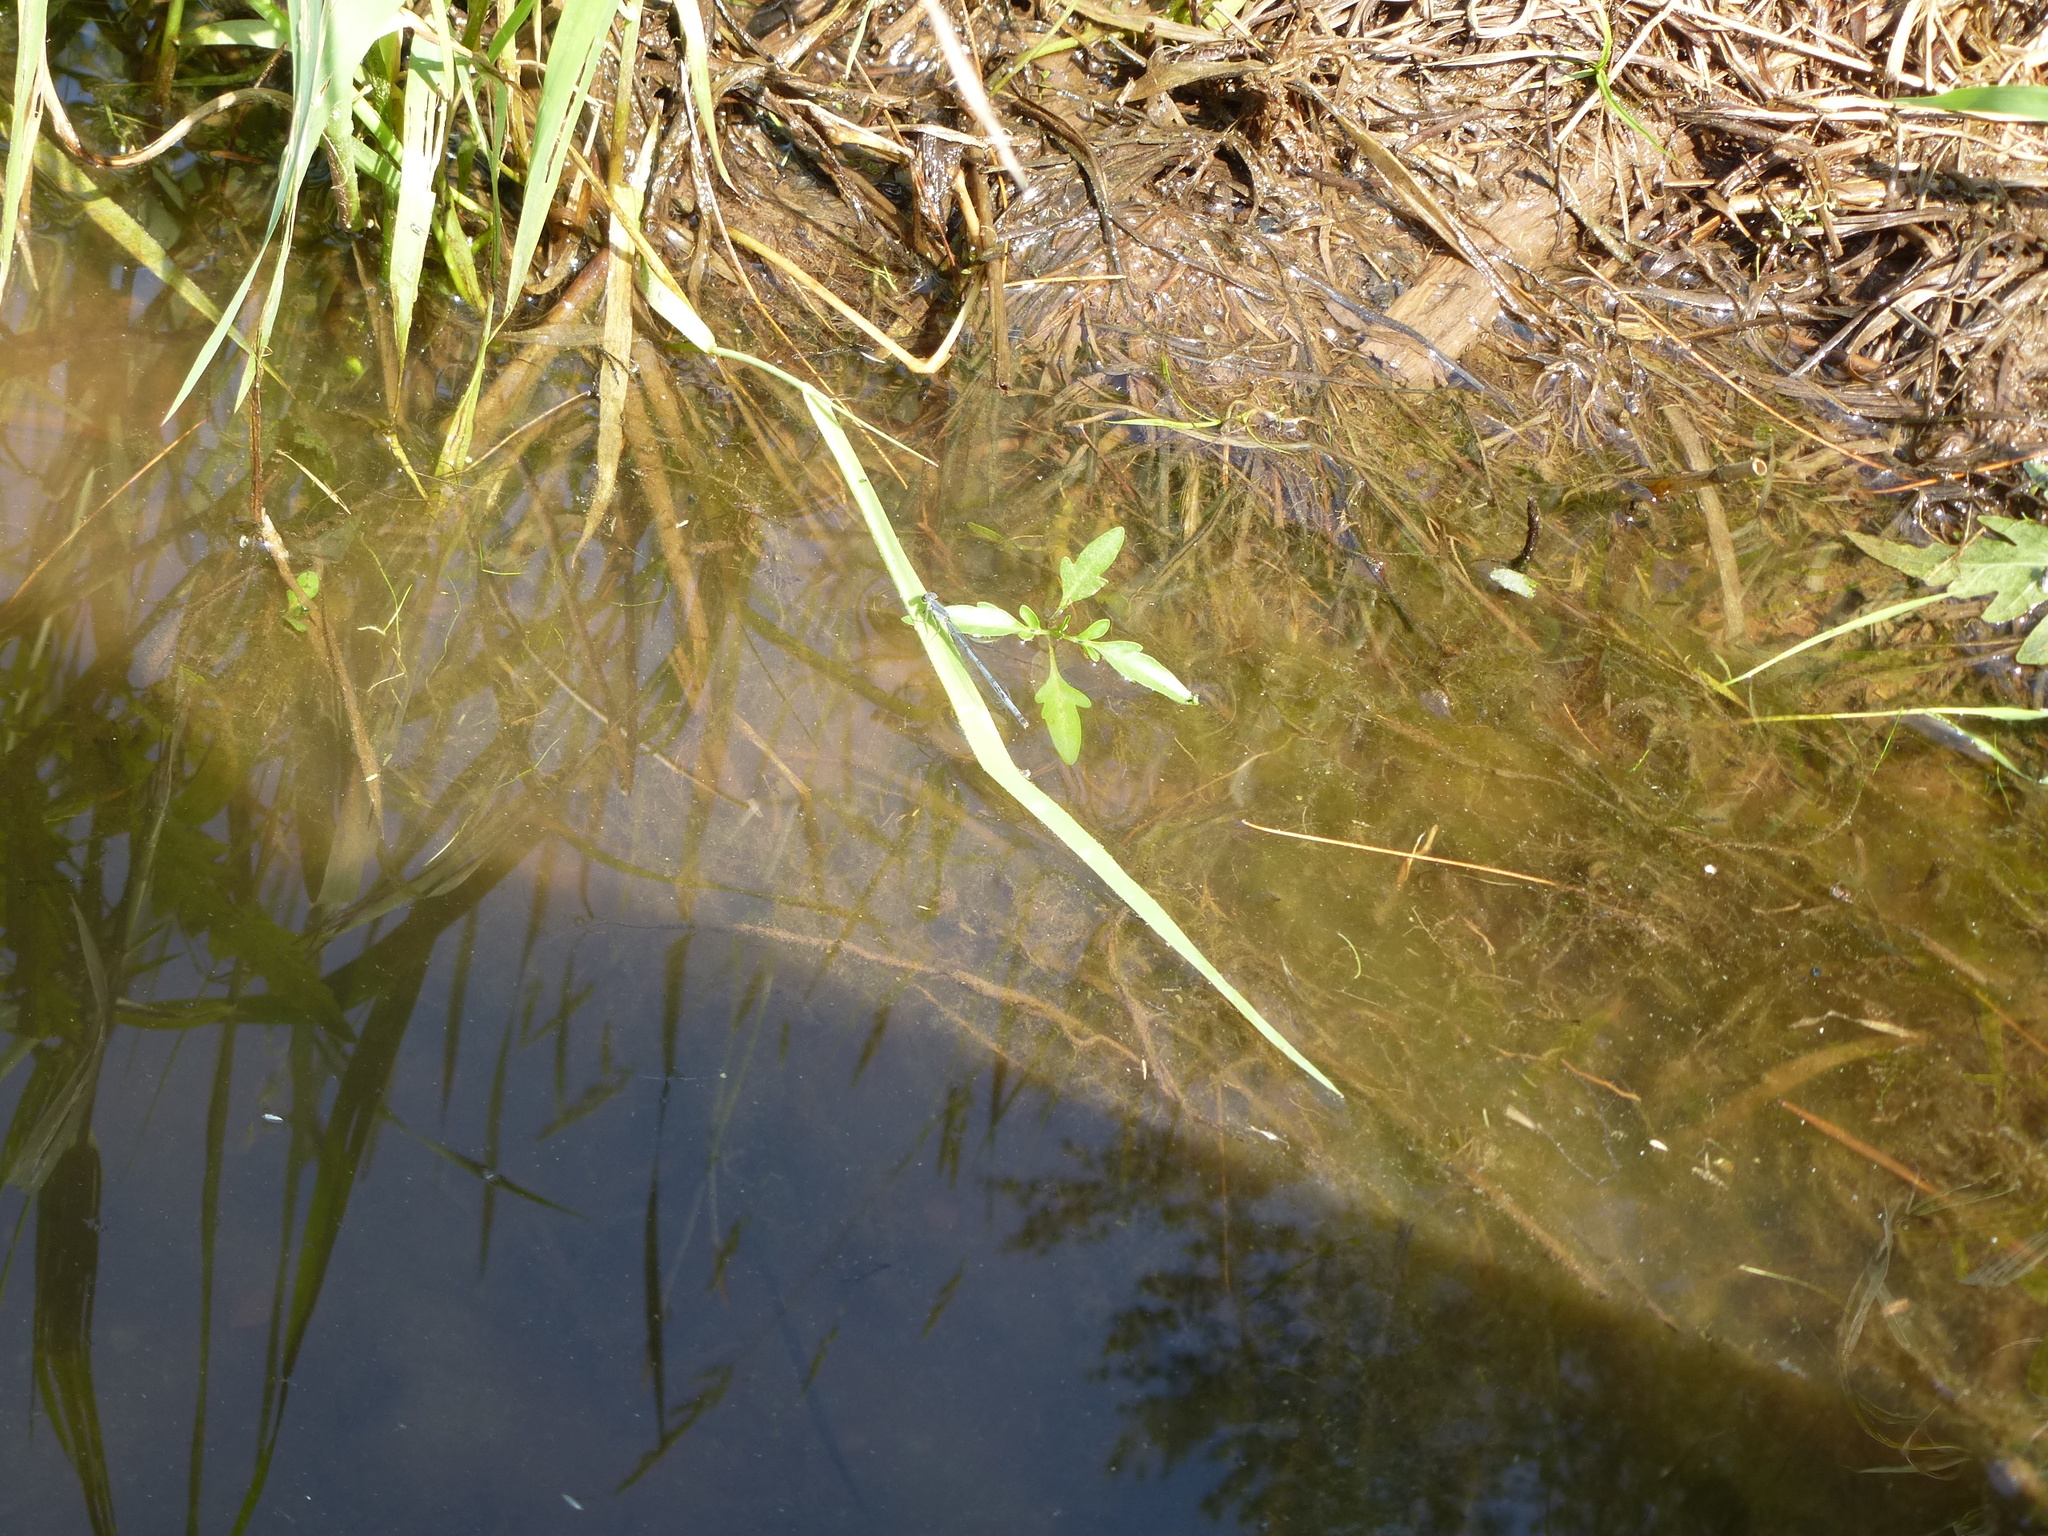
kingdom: Animalia
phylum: Arthropoda
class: Insecta
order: Odonata
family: Coenagrionidae
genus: Ischnura
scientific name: Ischnura verticalis
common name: Eastern forktail
